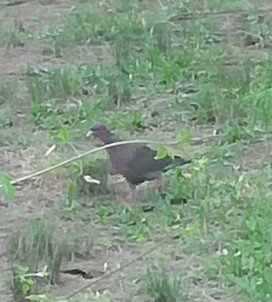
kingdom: Animalia
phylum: Chordata
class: Aves
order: Columbiformes
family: Columbidae
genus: Patagioenas
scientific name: Patagioenas picazuro
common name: Picazuro pigeon
